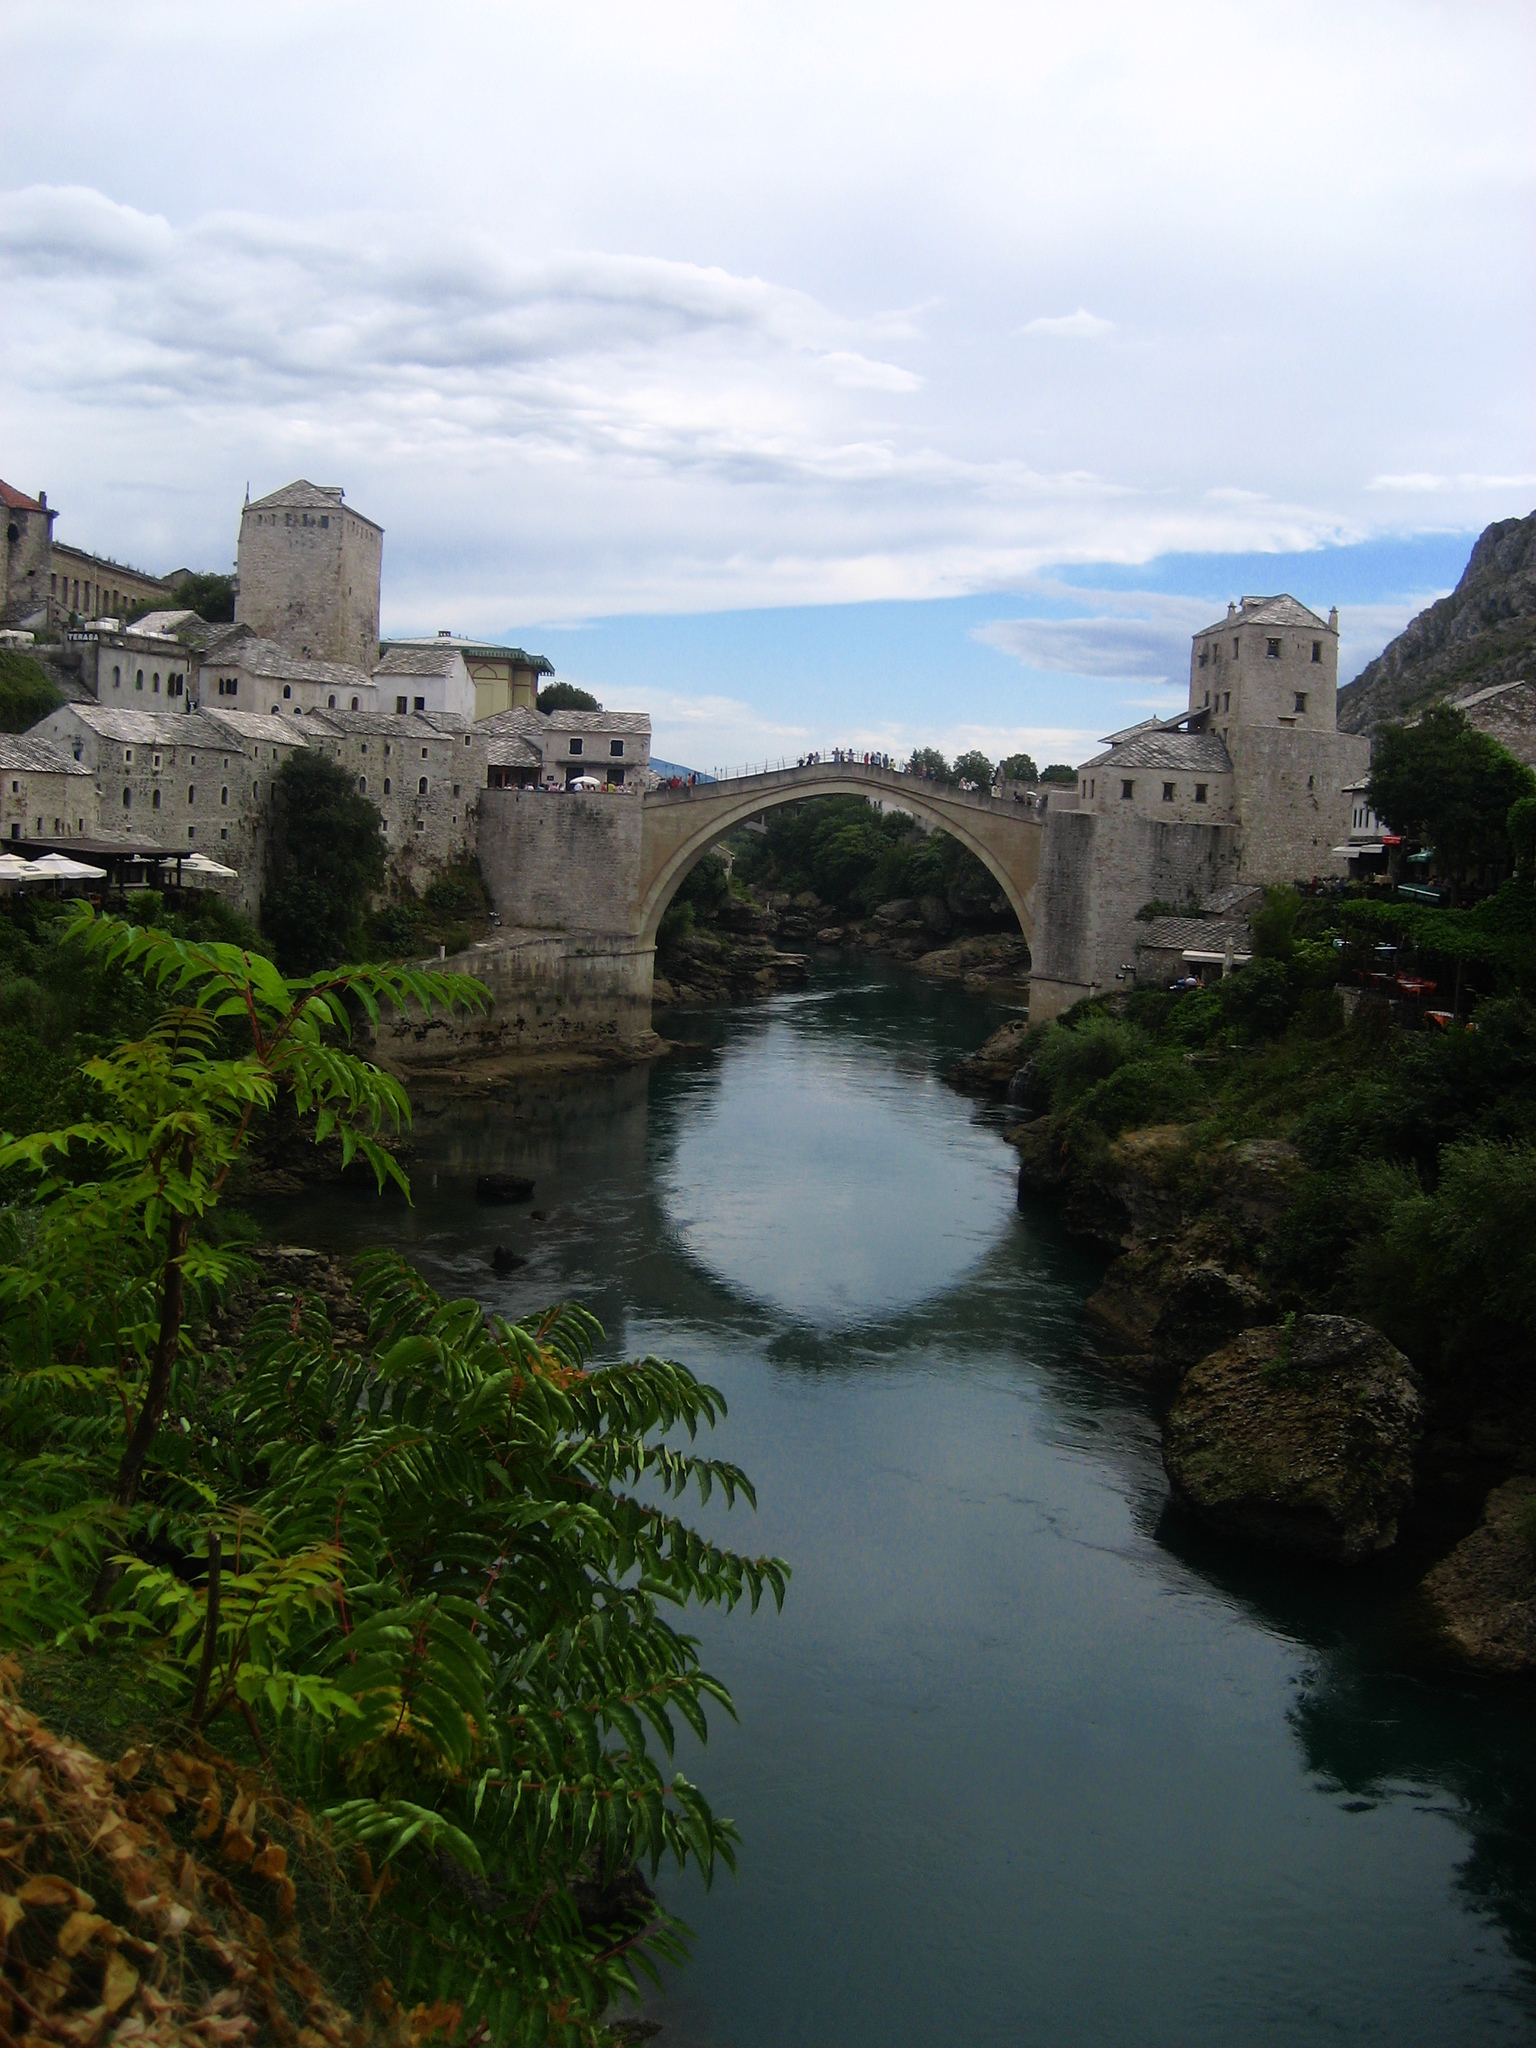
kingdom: Plantae
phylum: Tracheophyta
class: Magnoliopsida
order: Sapindales
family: Simaroubaceae
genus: Ailanthus
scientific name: Ailanthus altissima
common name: Tree-of-heaven
